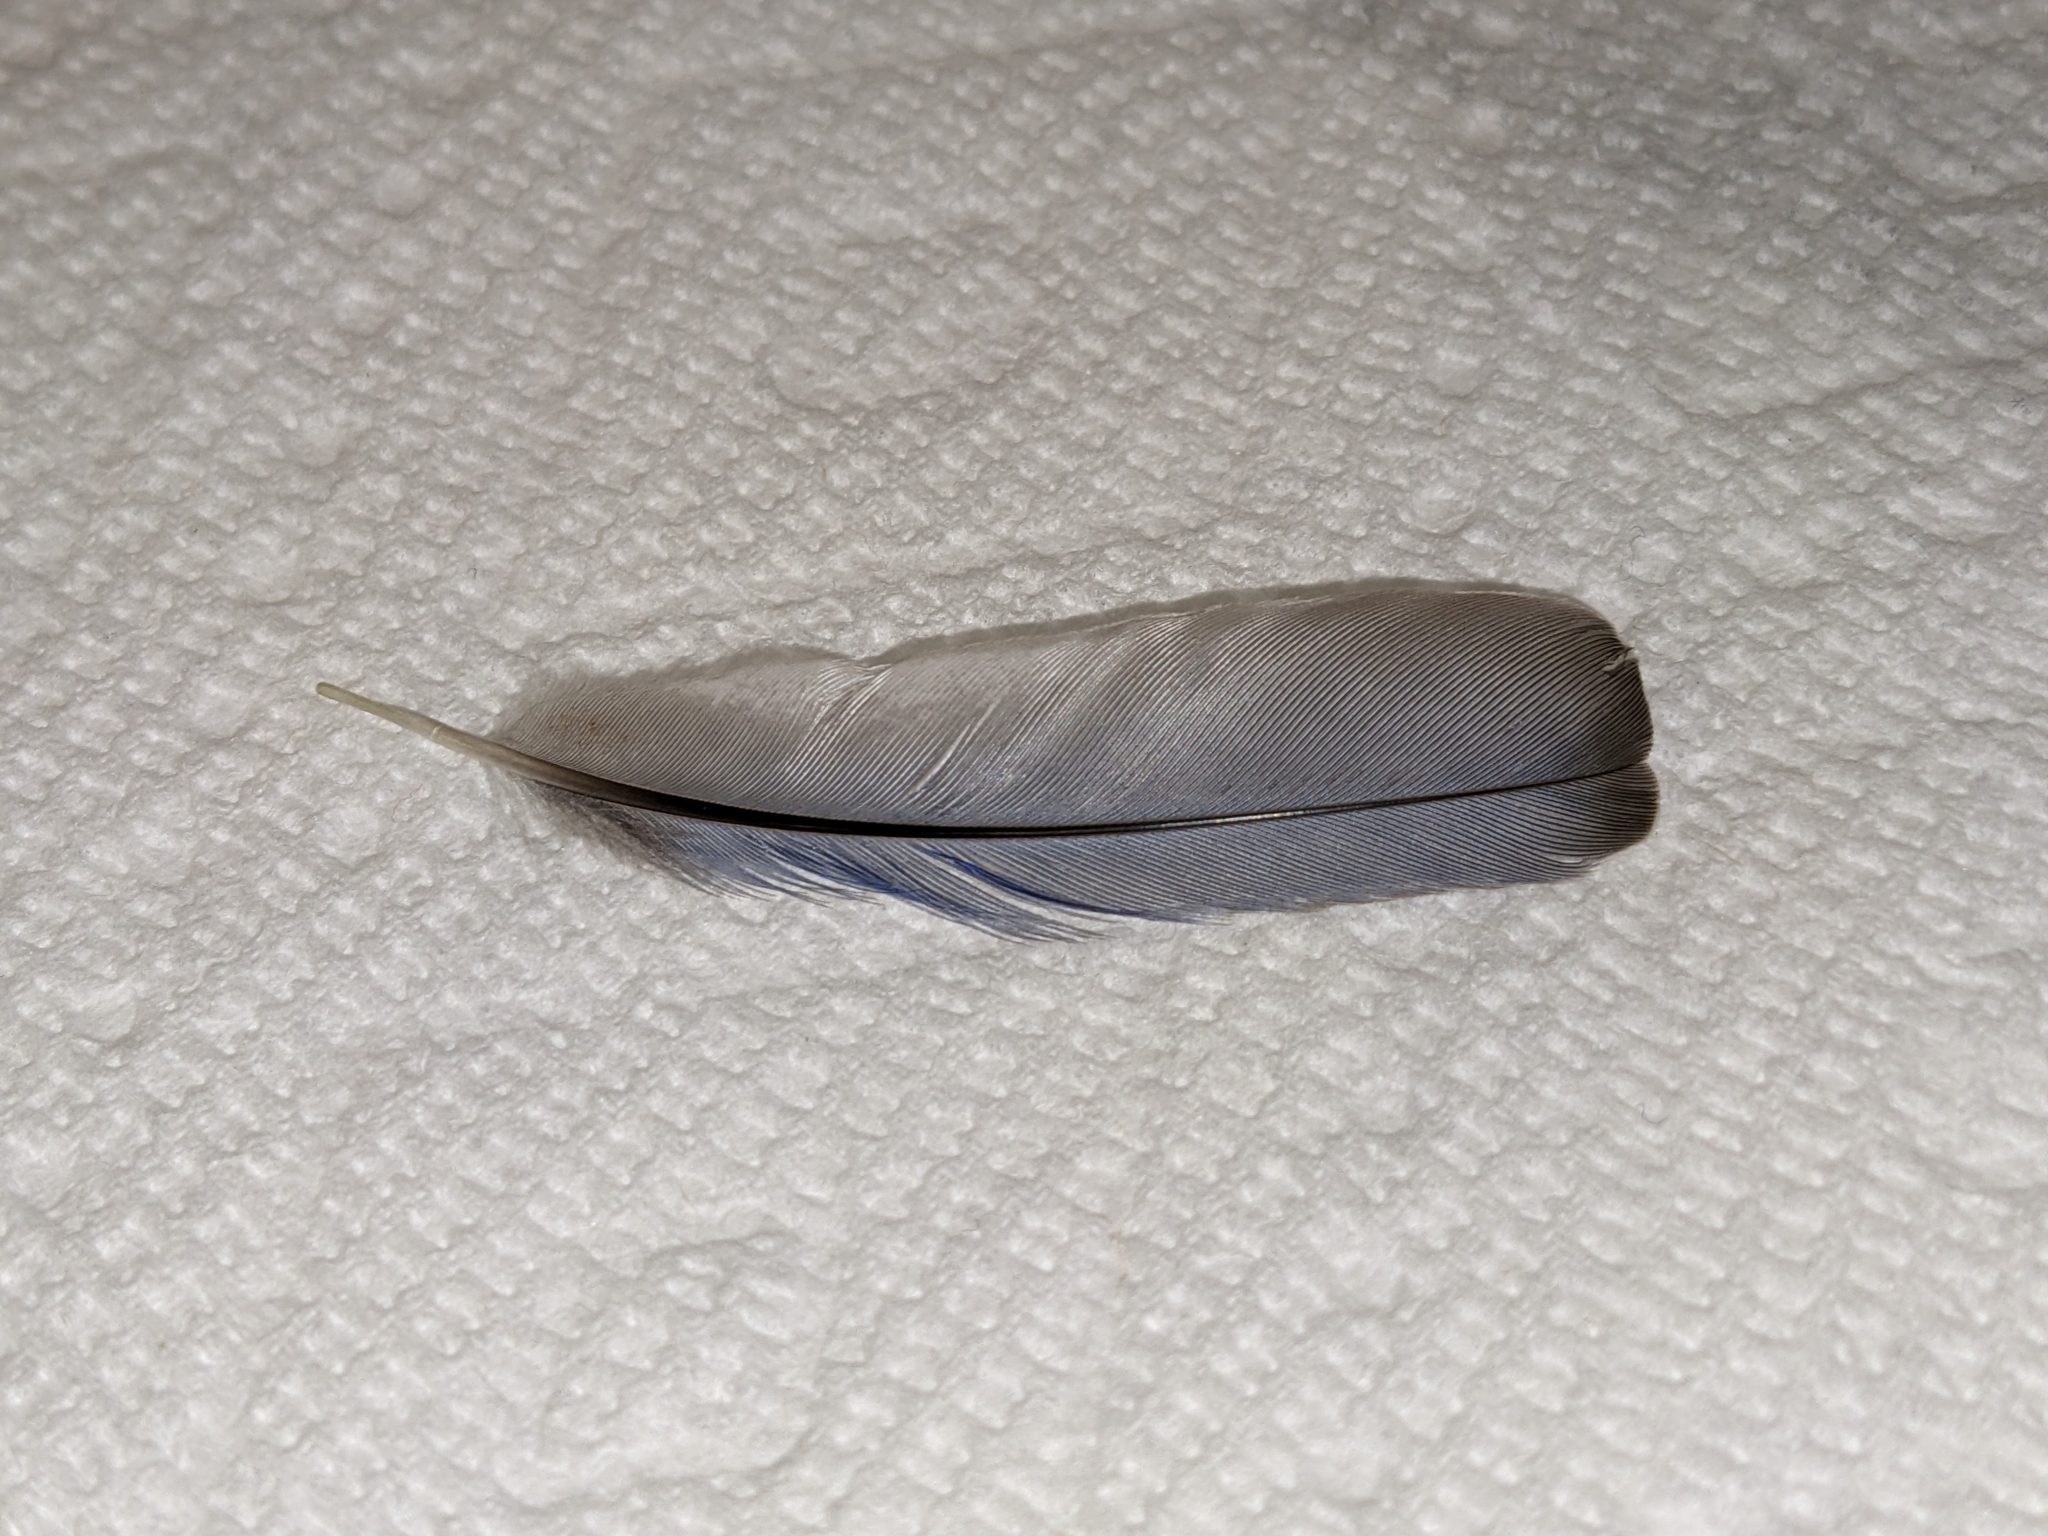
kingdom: Animalia
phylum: Chordata
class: Aves
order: Passeriformes
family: Turdidae
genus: Sialia
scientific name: Sialia sialis
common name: Eastern bluebird
